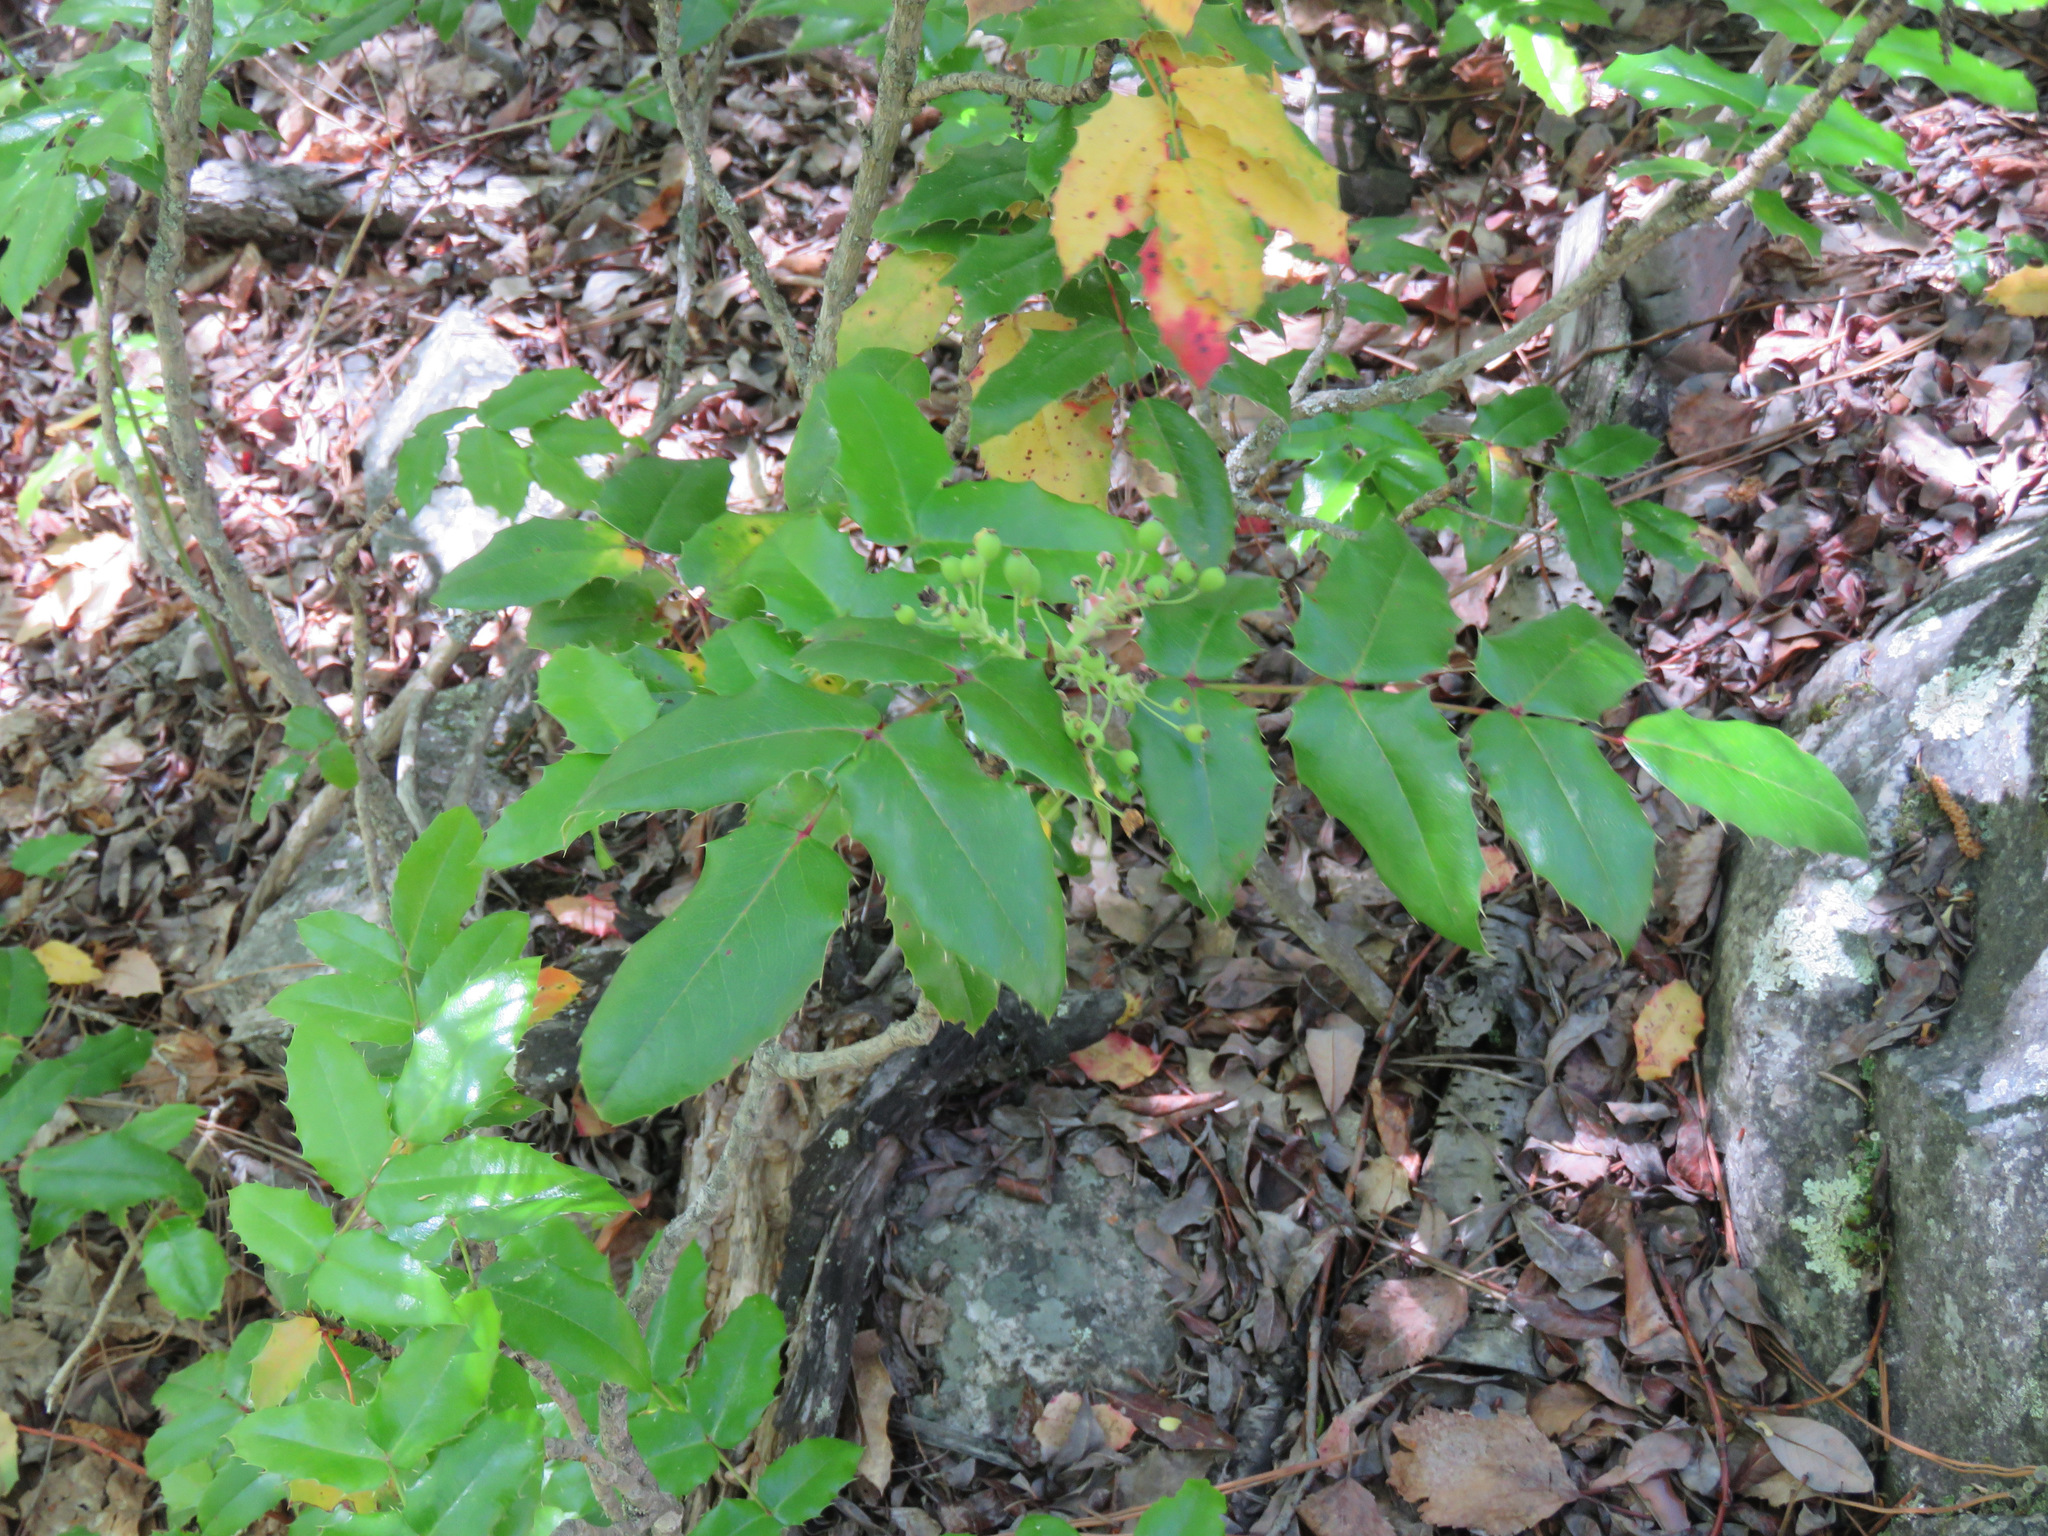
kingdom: Plantae
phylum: Tracheophyta
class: Magnoliopsida
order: Ranunculales
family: Berberidaceae
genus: Mahonia
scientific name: Mahonia aquifolium
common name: Oregon-grape
